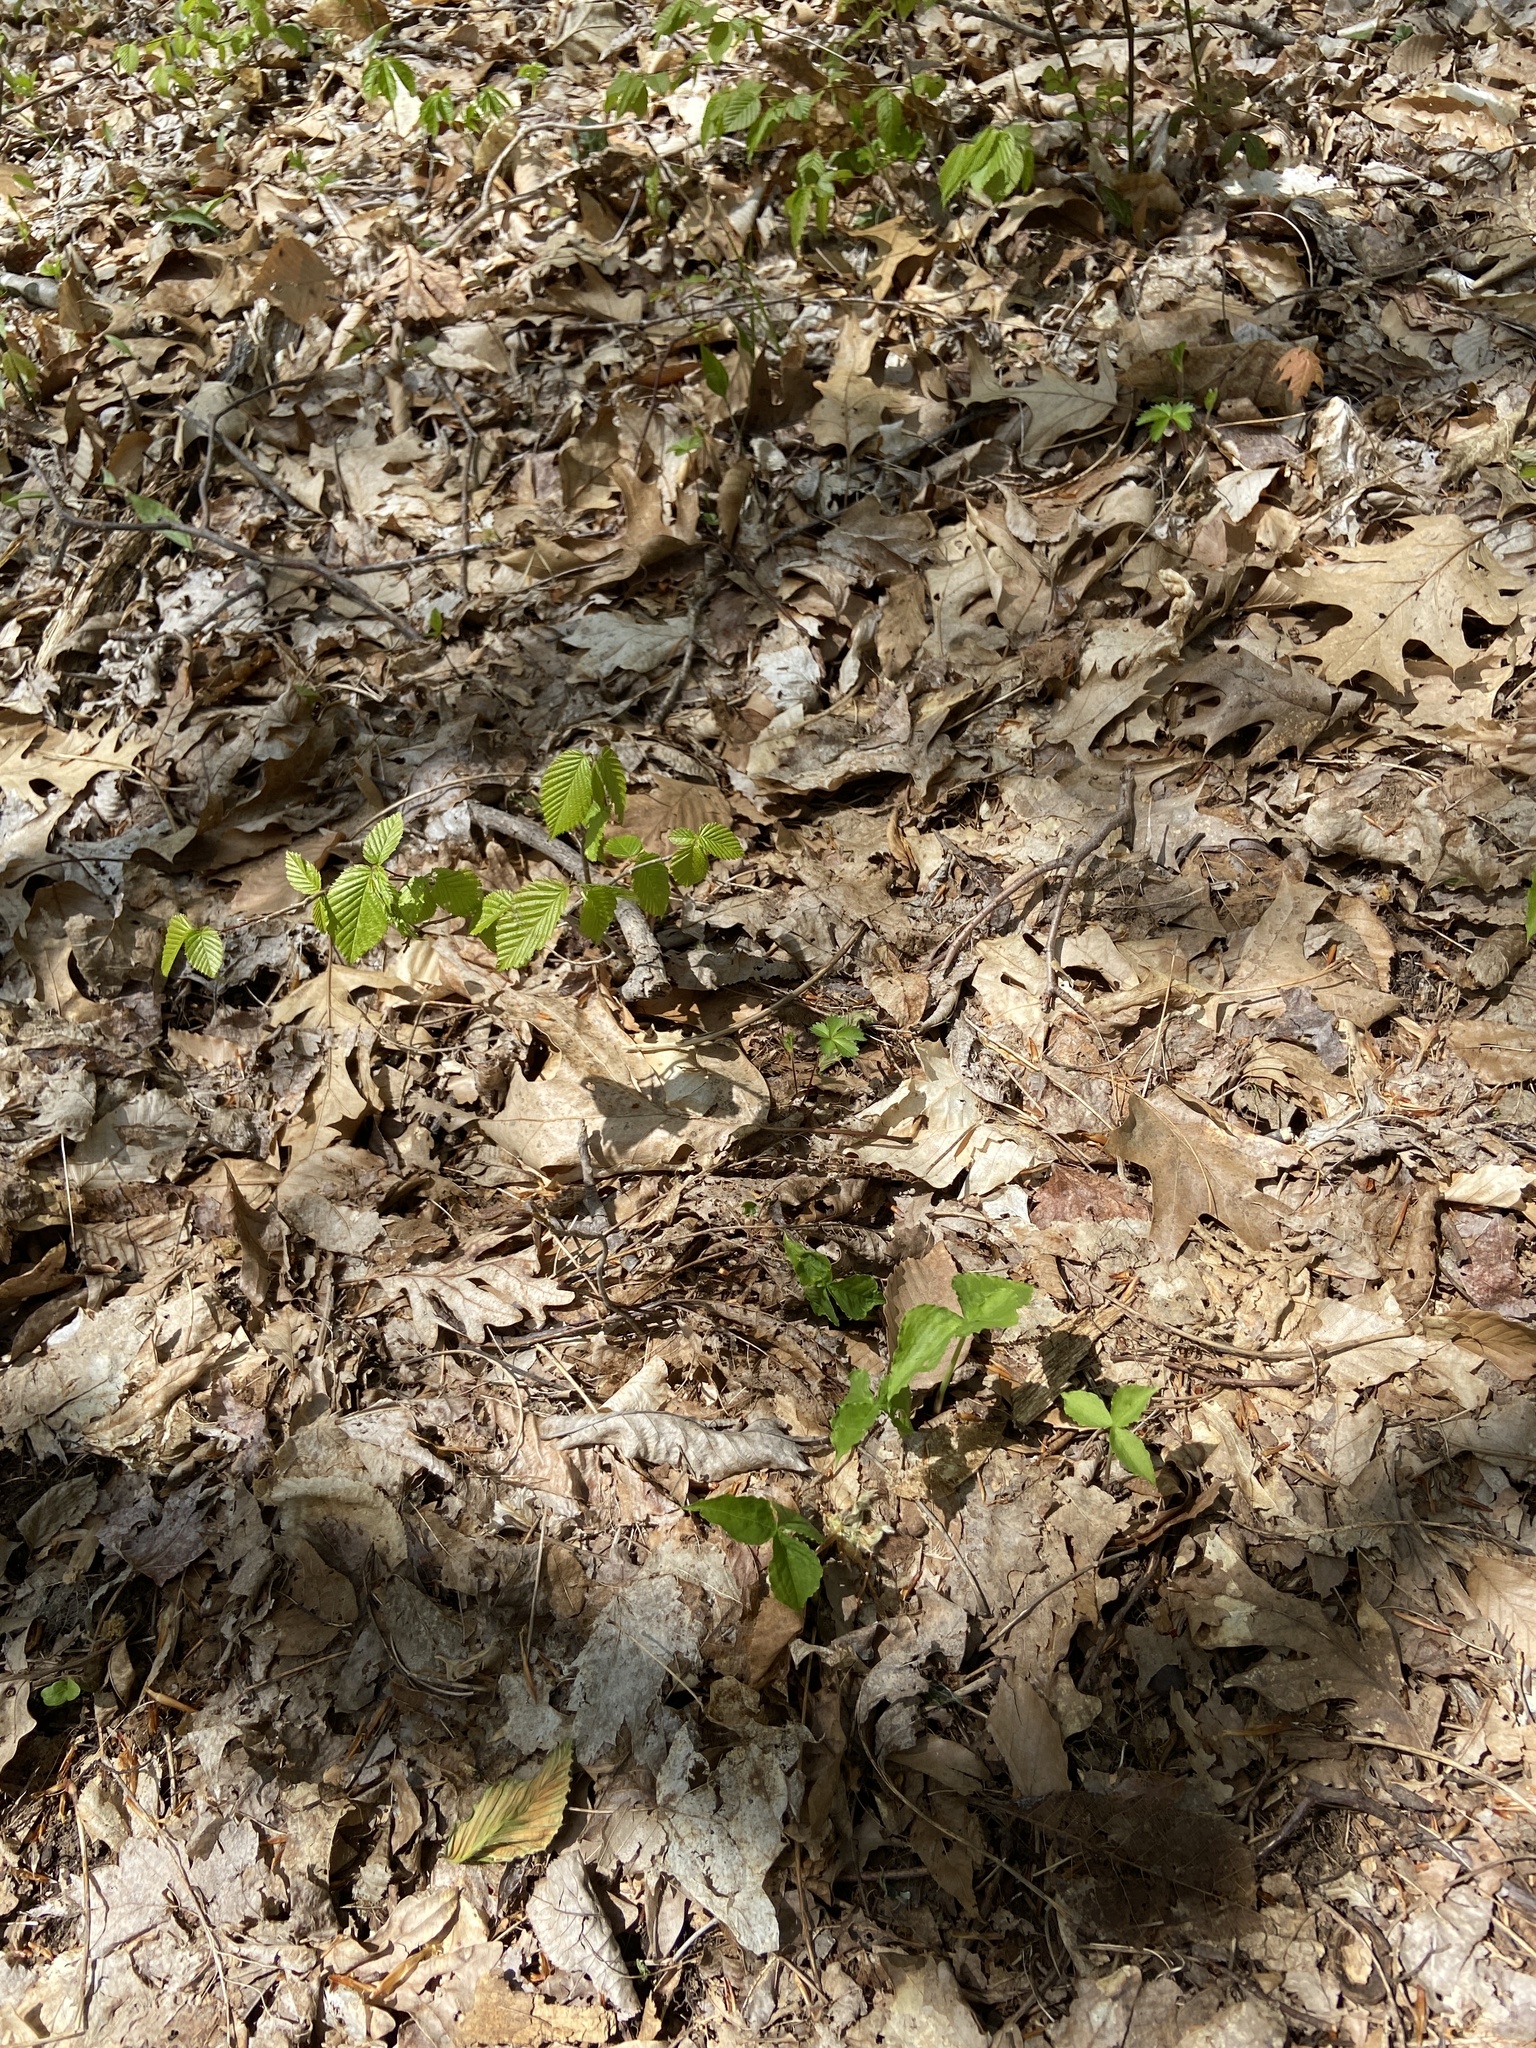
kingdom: Plantae
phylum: Tracheophyta
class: Liliopsida
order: Alismatales
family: Araceae
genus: Arisaema
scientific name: Arisaema triphyllum
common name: Jack-in-the-pulpit
